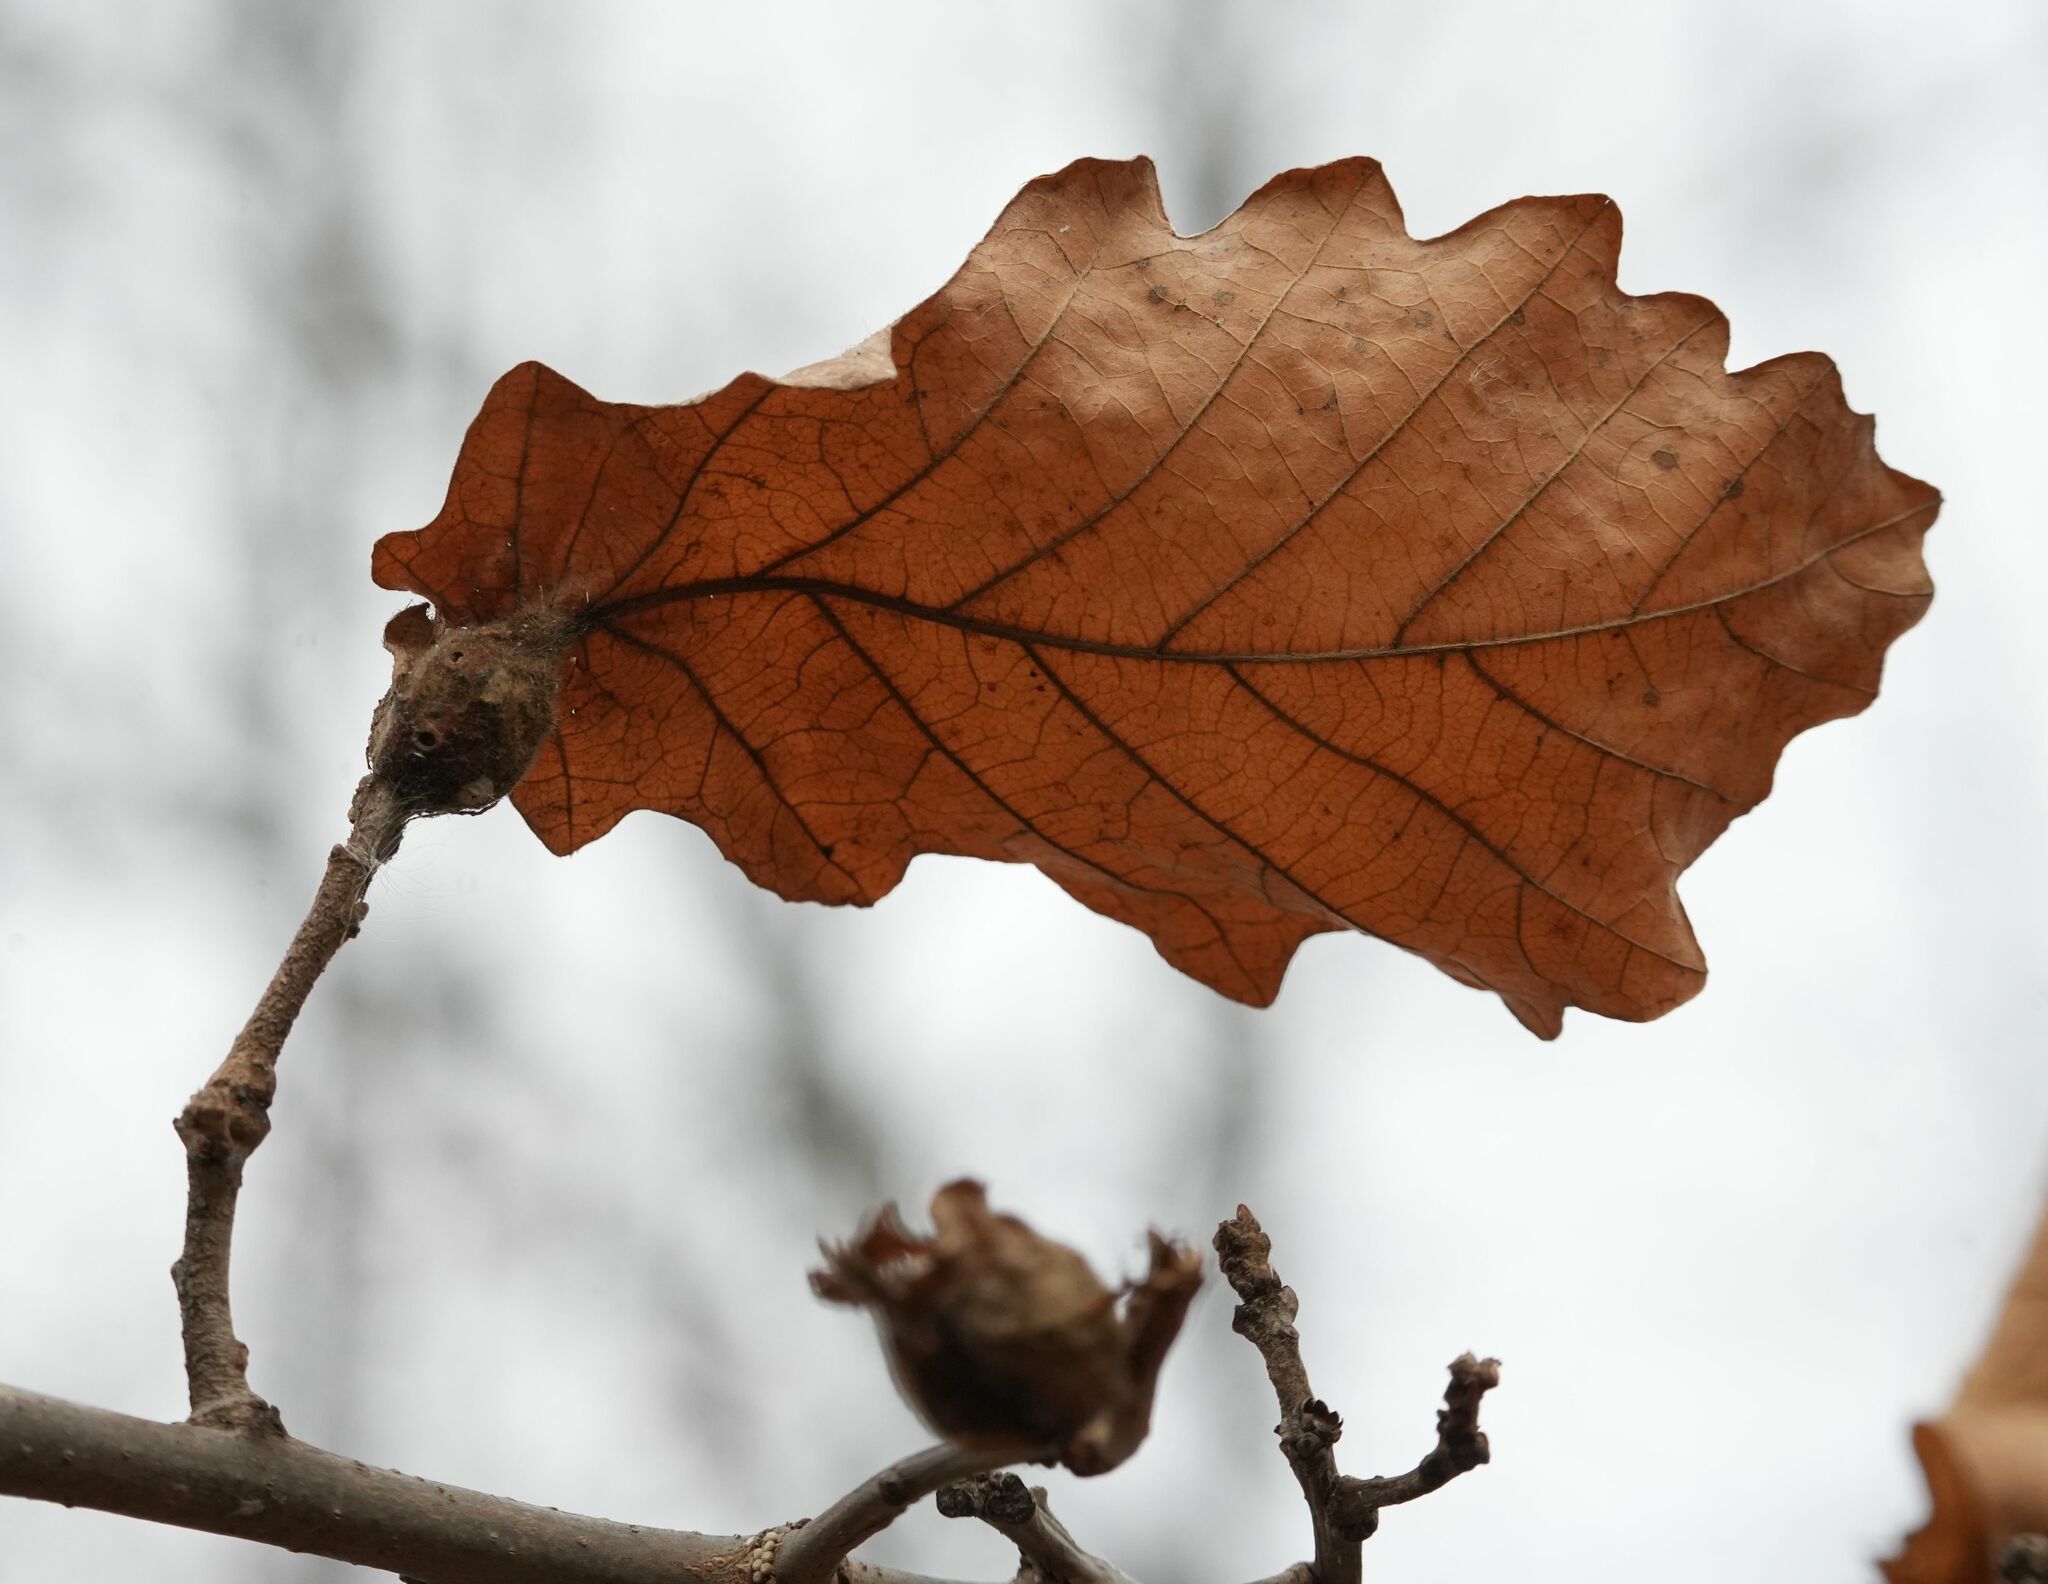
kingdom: Animalia
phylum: Arthropoda
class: Insecta
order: Hymenoptera
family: Cynipidae
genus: Andricus
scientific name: Andricus
